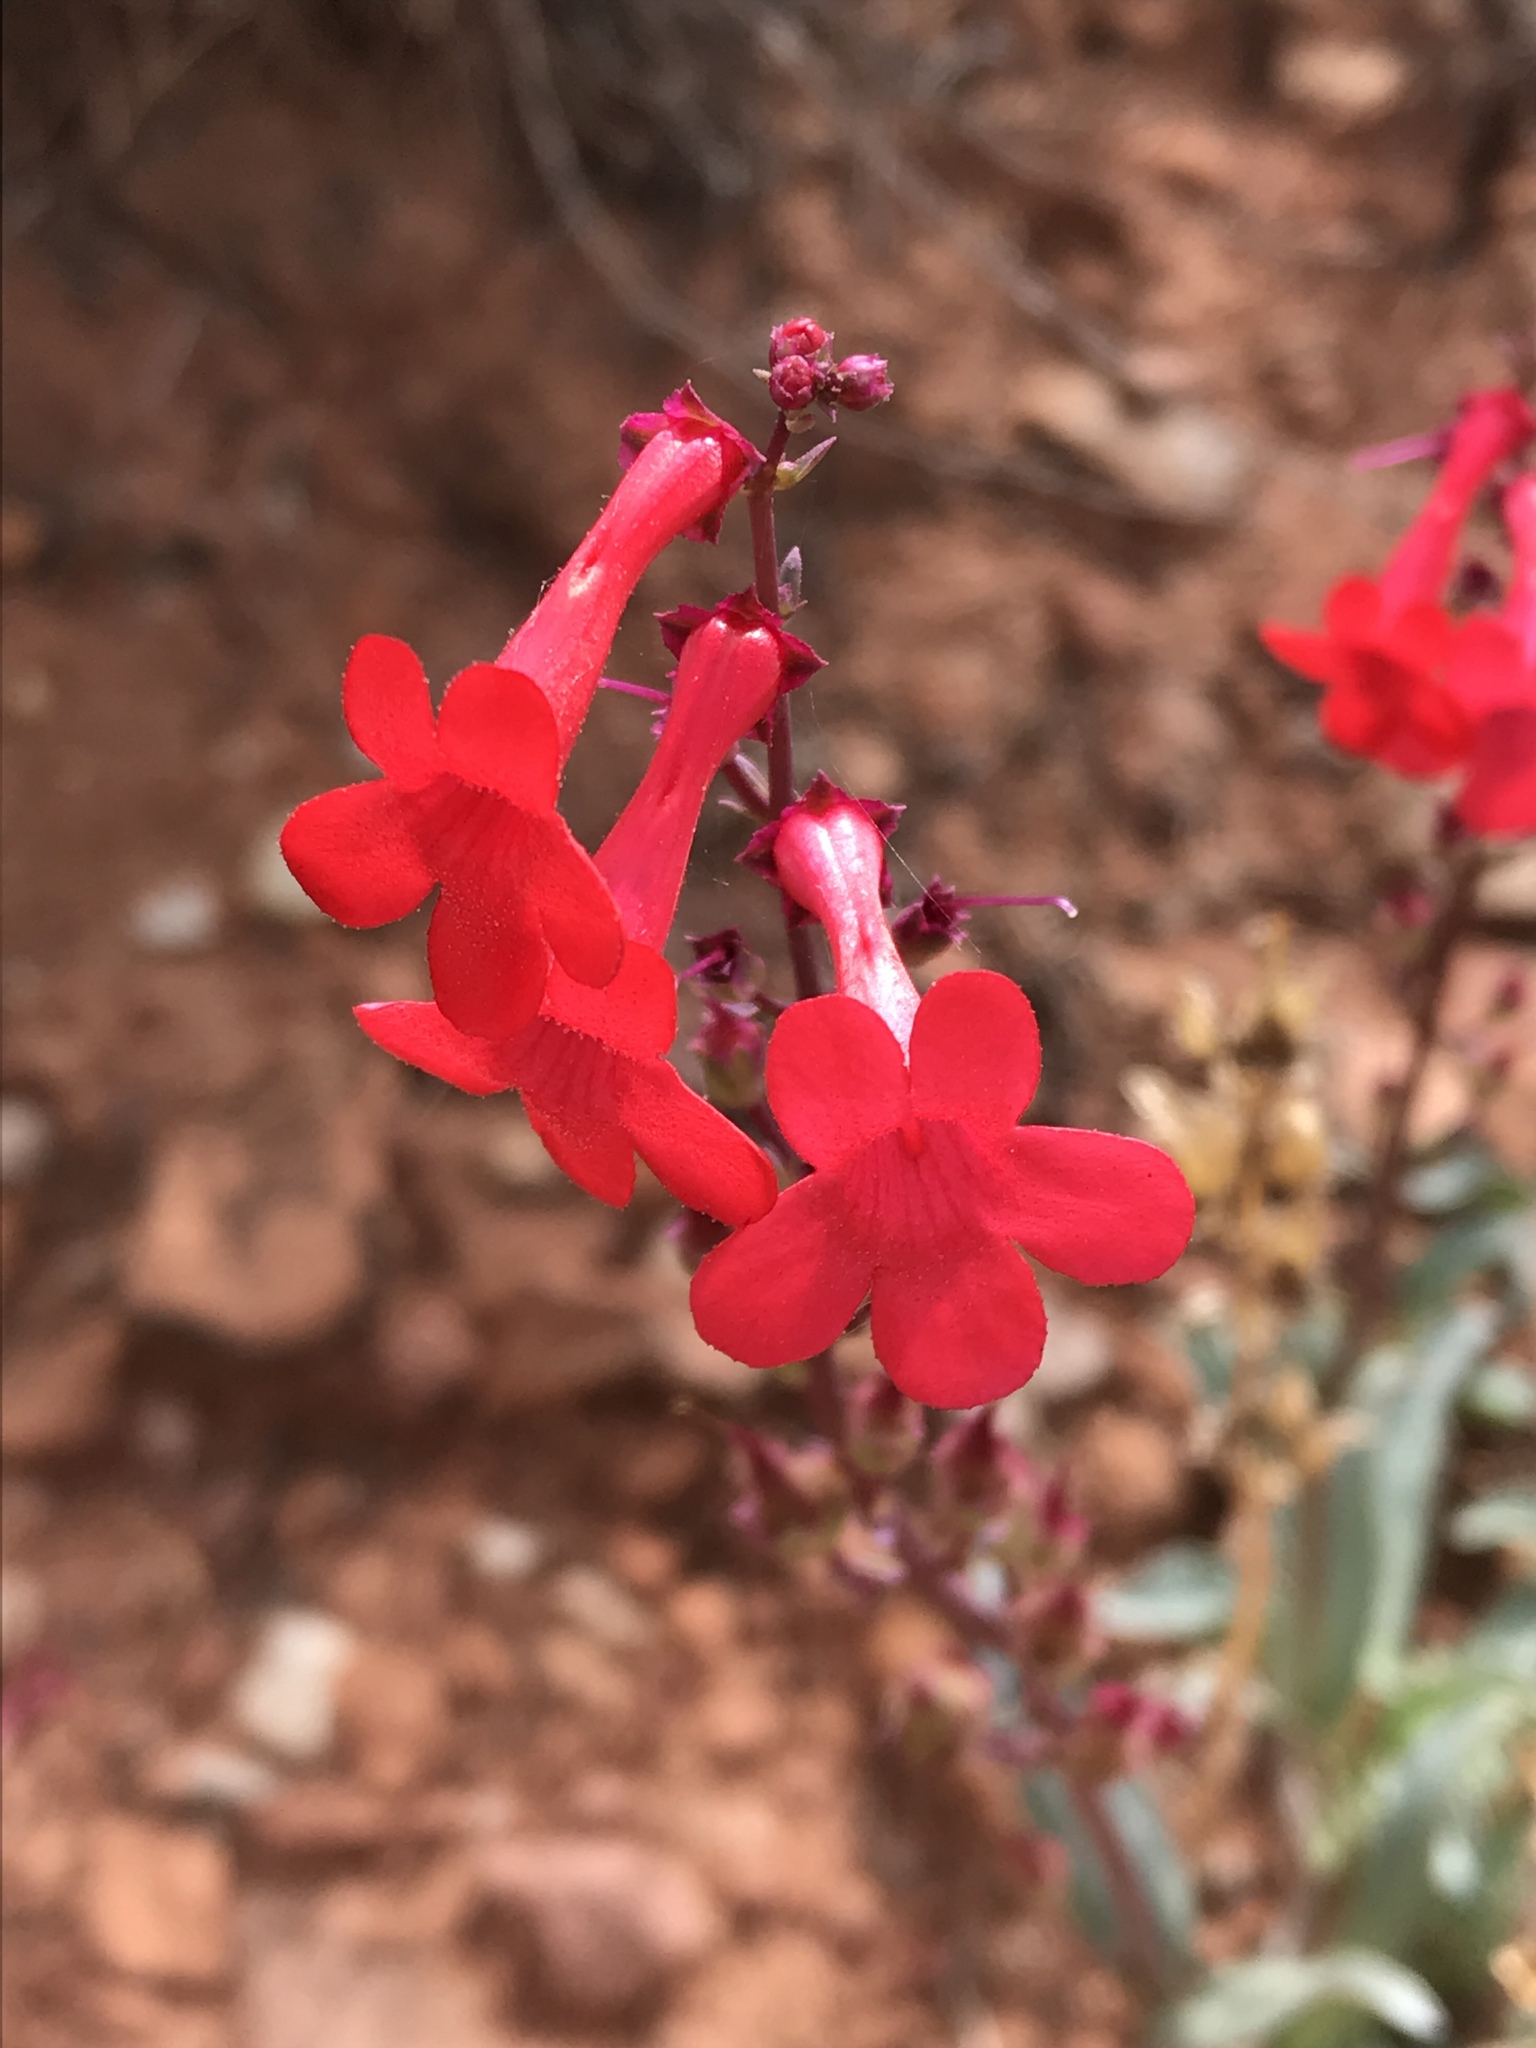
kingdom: Plantae
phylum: Tracheophyta
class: Magnoliopsida
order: Lamiales
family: Plantaginaceae
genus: Penstemon
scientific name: Penstemon utahensis
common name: Utah penstemon
